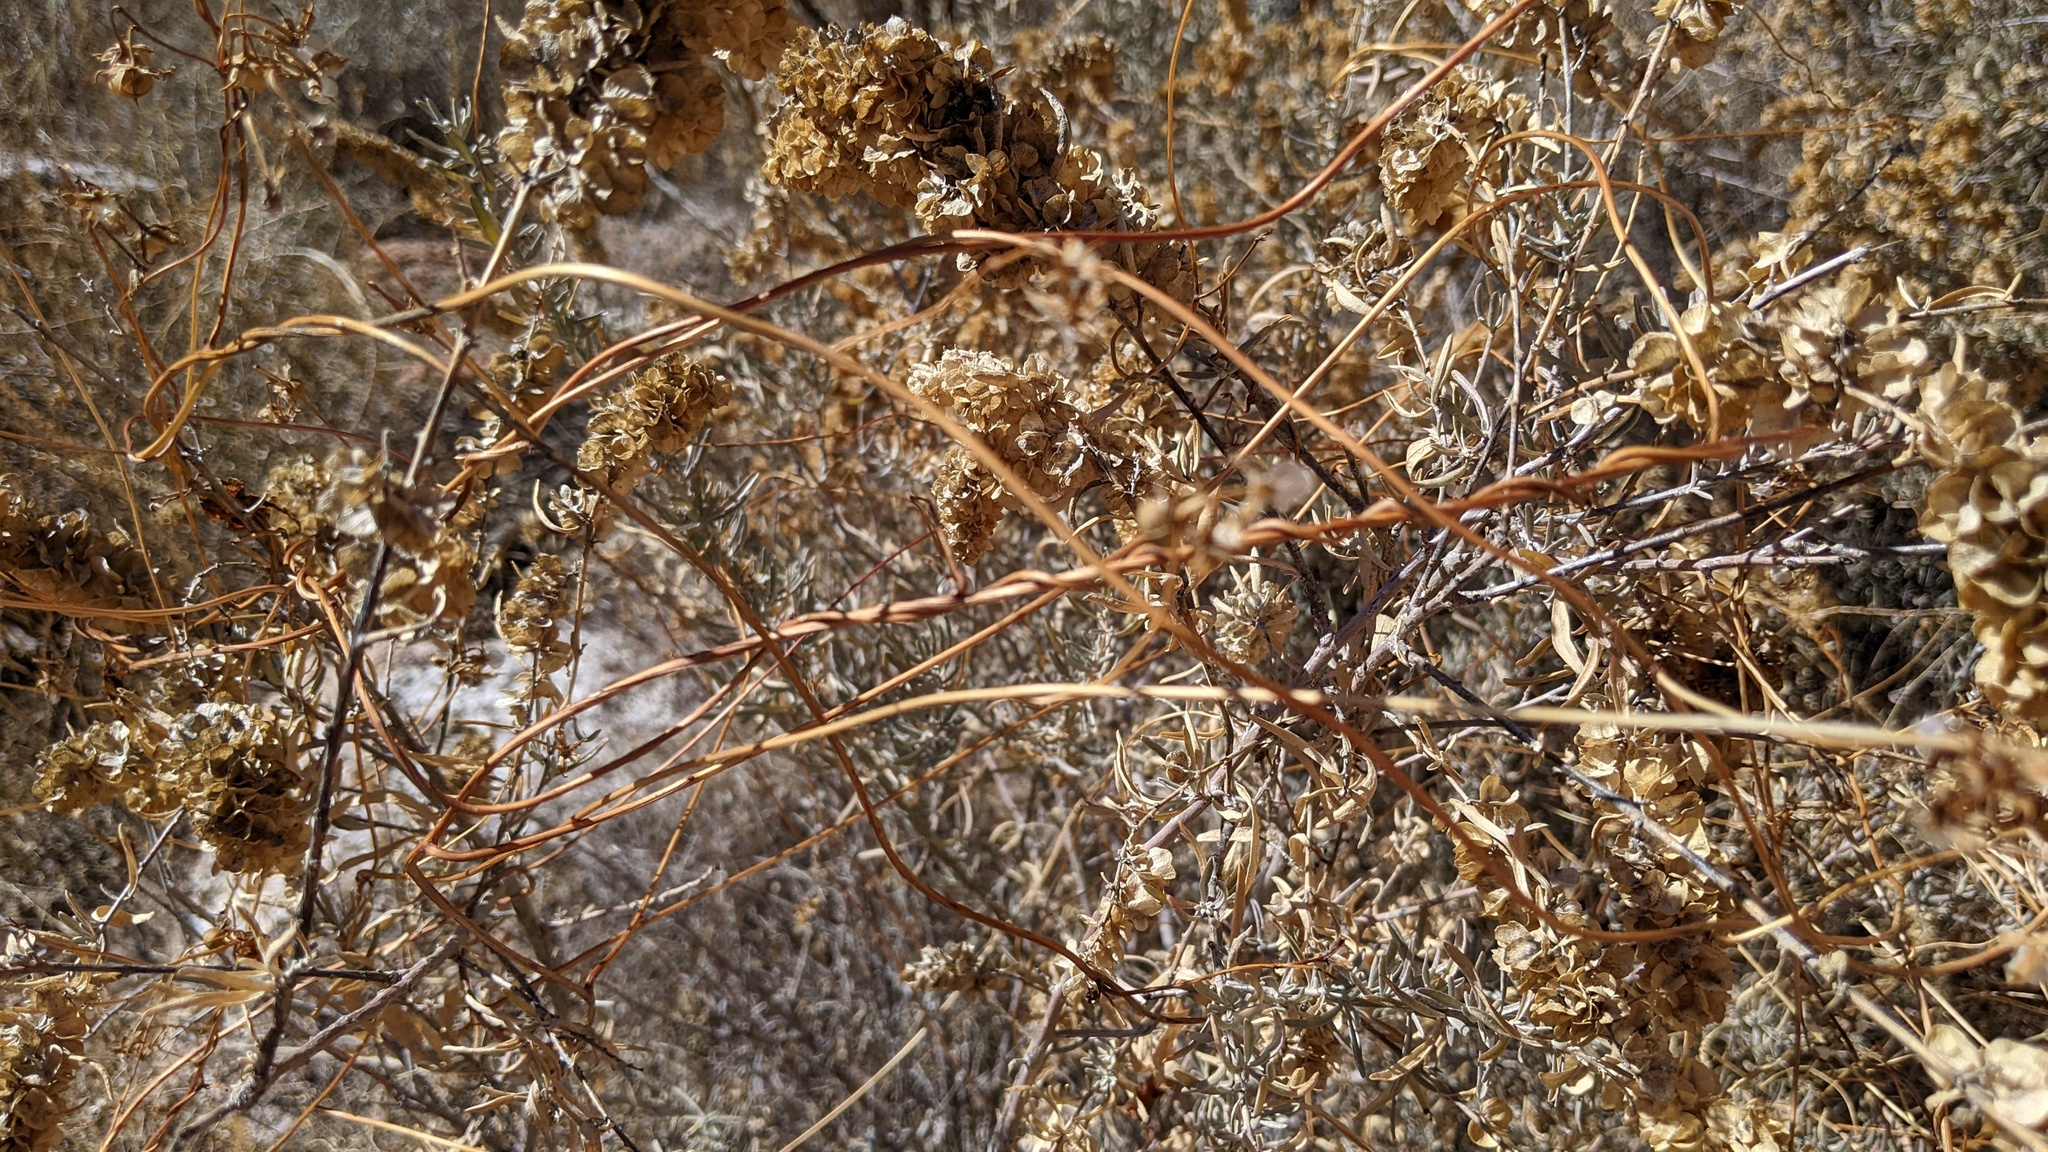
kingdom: Plantae
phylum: Tracheophyta
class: Magnoliopsida
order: Caryophyllales
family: Amaranthaceae
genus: Atriplex
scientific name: Atriplex canescens
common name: Four-wing saltbush
